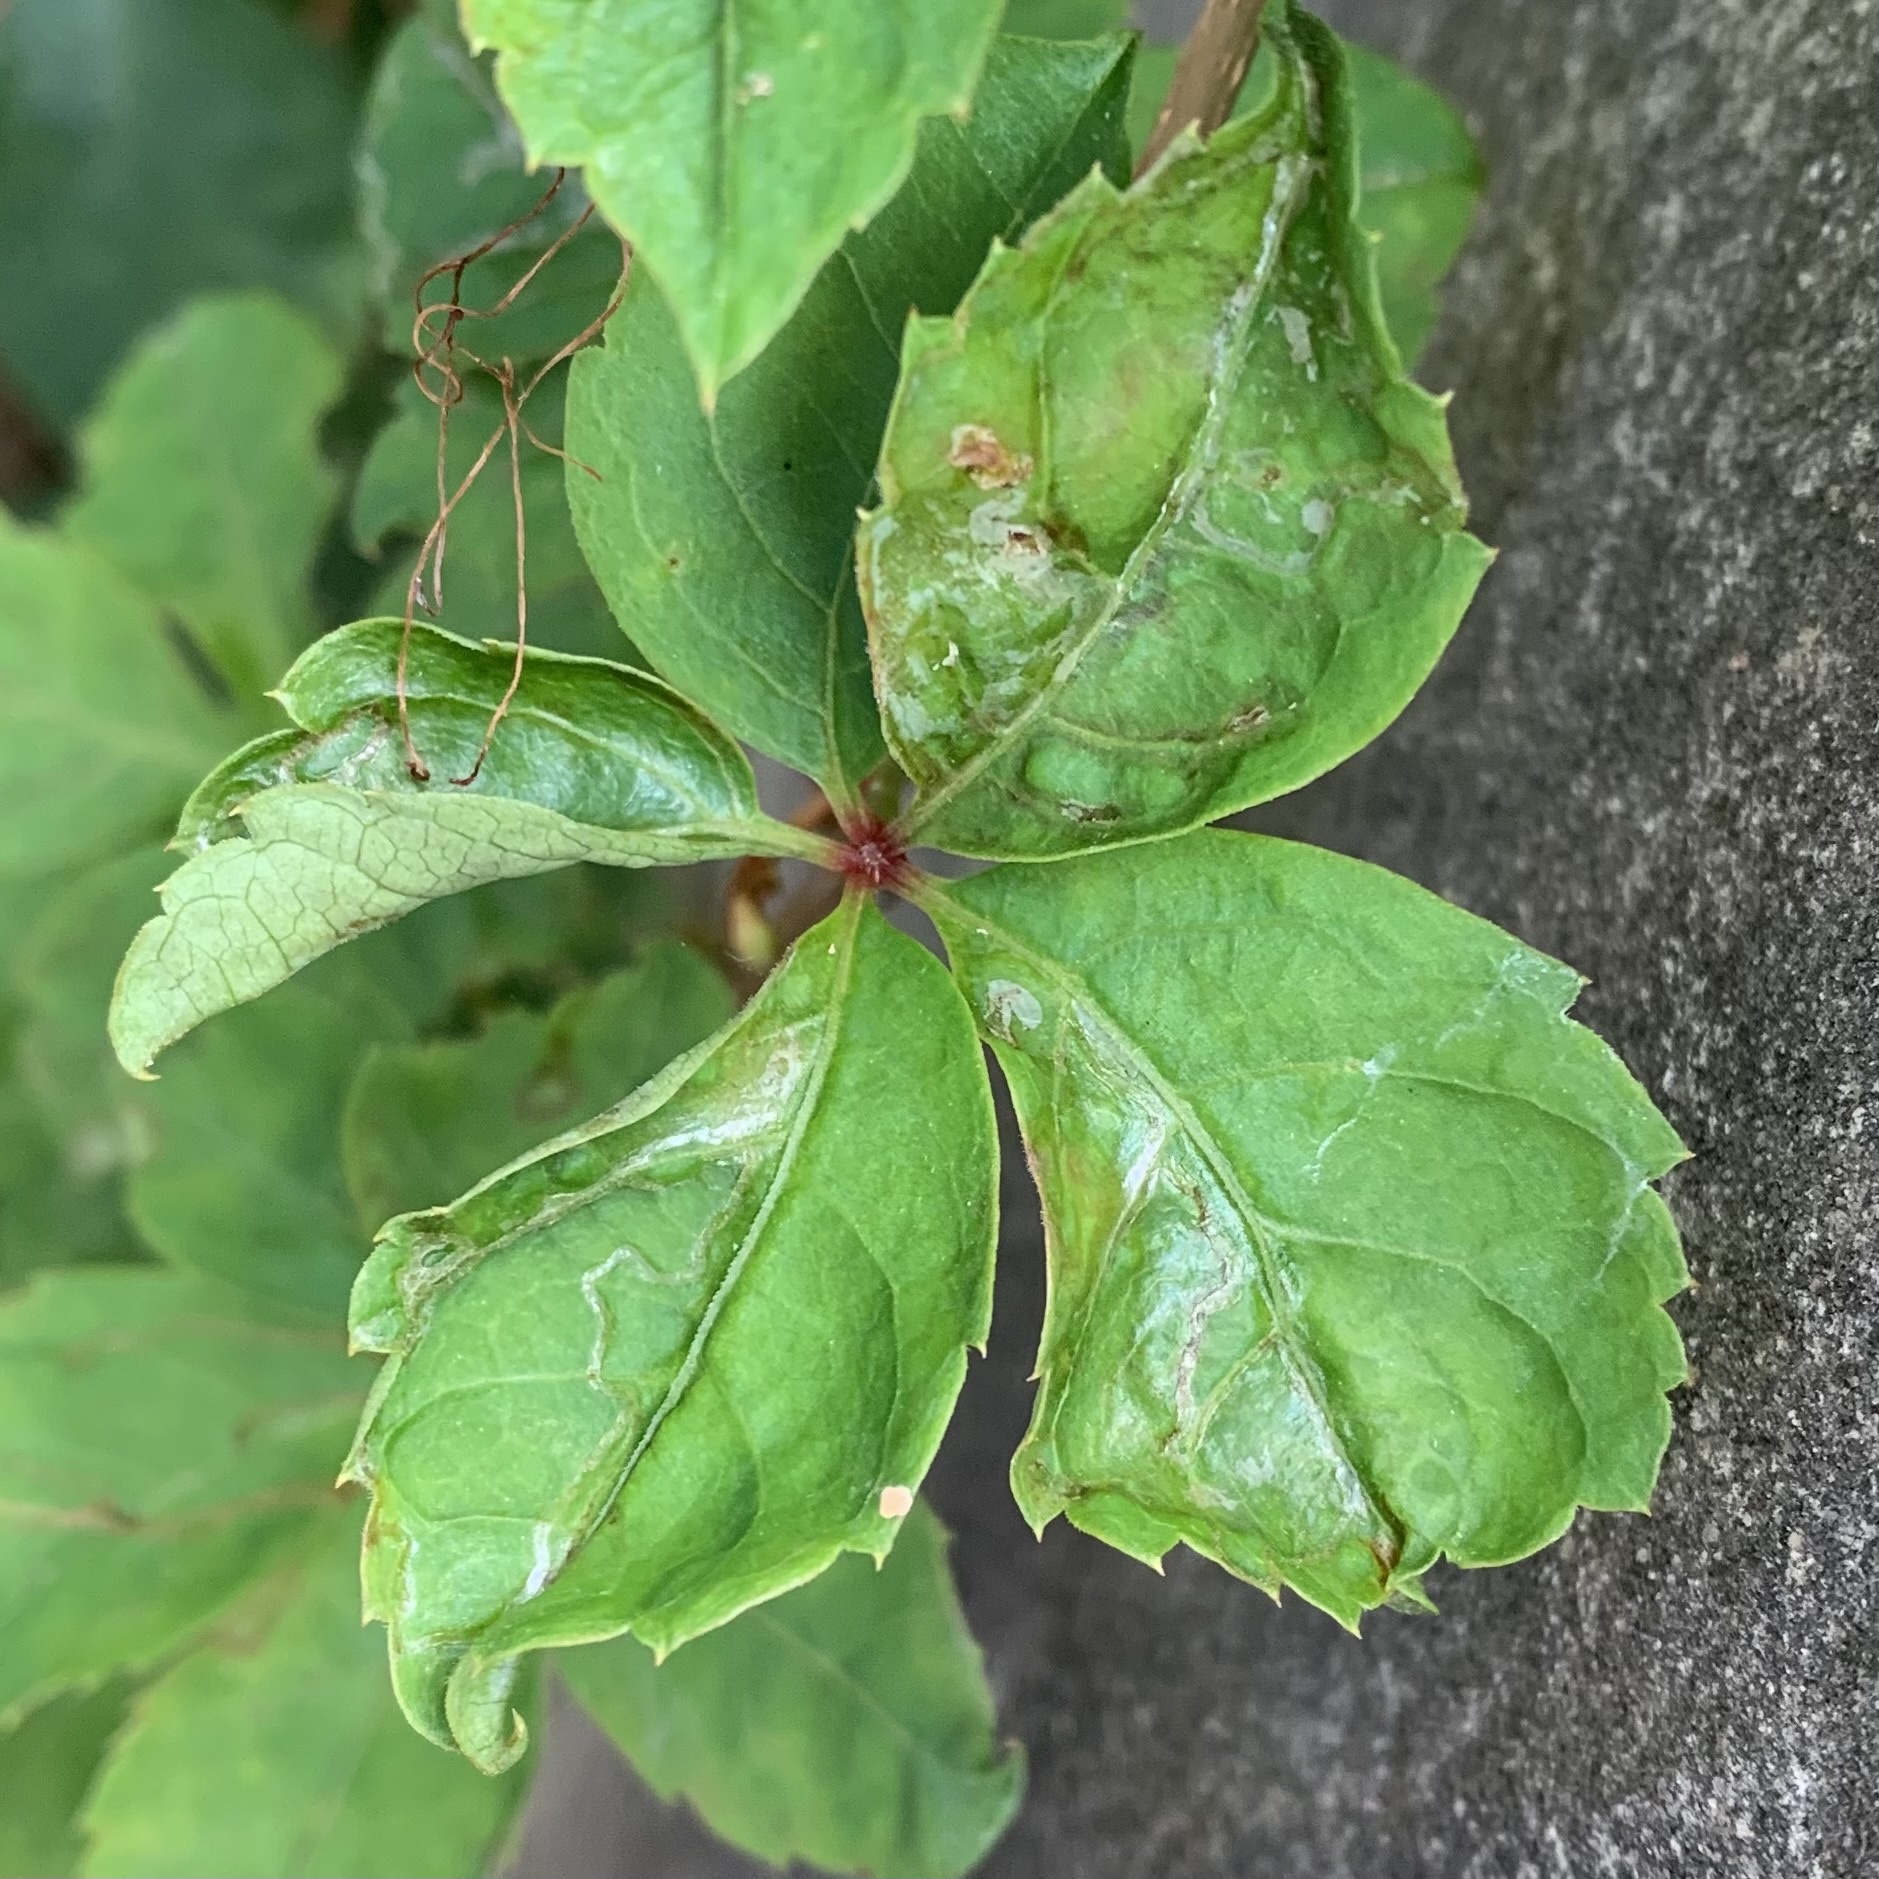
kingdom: Animalia
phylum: Arthropoda
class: Insecta
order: Lepidoptera
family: Gracillariidae
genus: Phyllocnistis
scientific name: Phyllocnistis vitegenella
